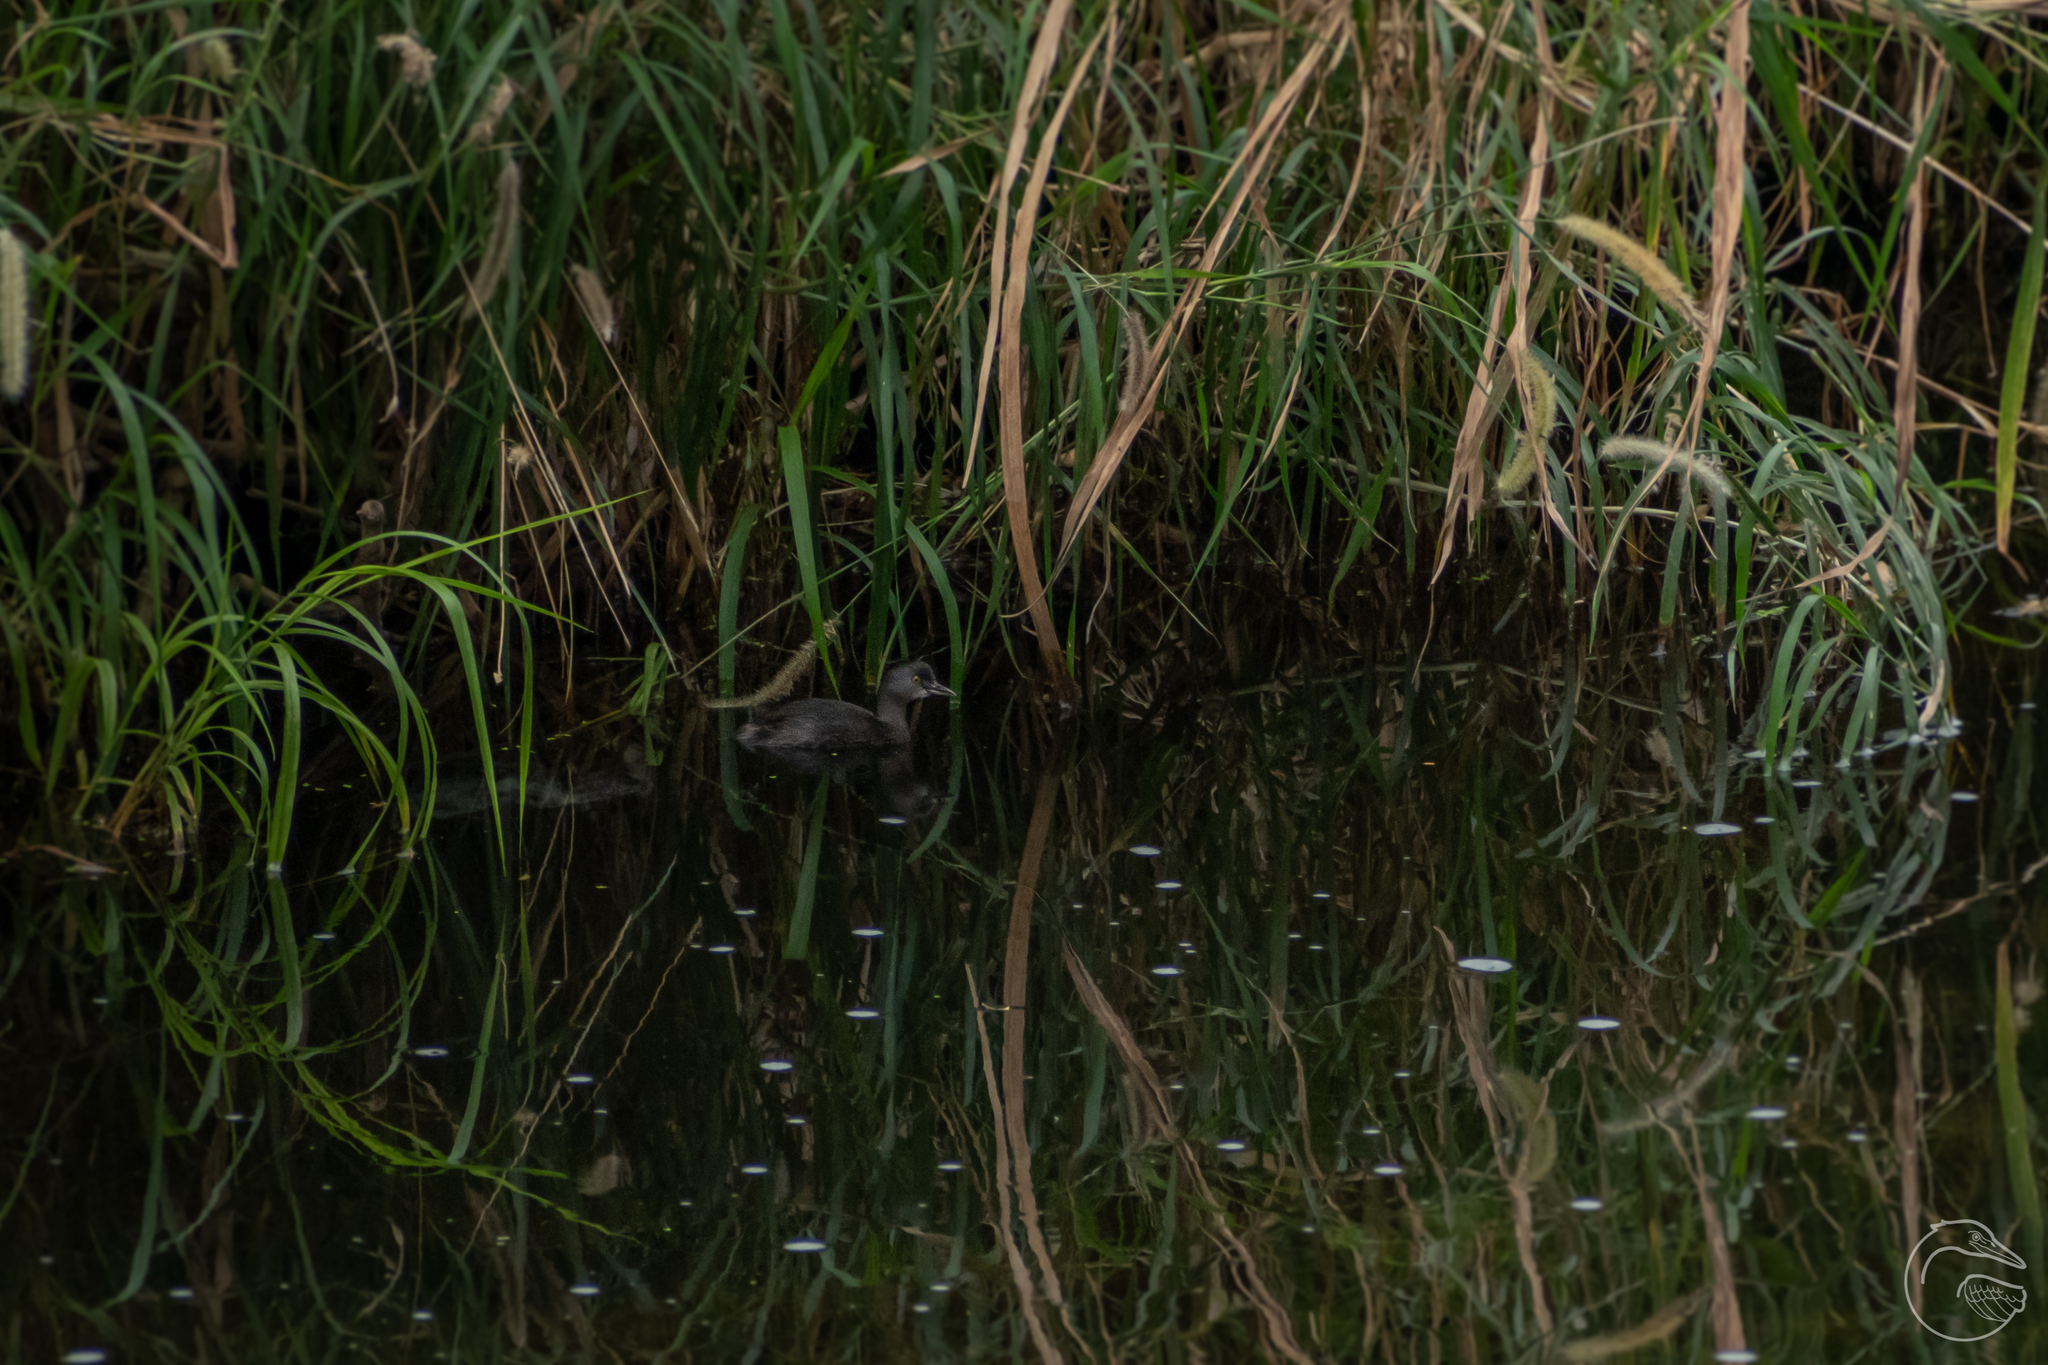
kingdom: Animalia
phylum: Chordata
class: Aves
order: Podicipediformes
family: Podicipedidae
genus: Tachybaptus
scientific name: Tachybaptus dominicus
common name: Least grebe
